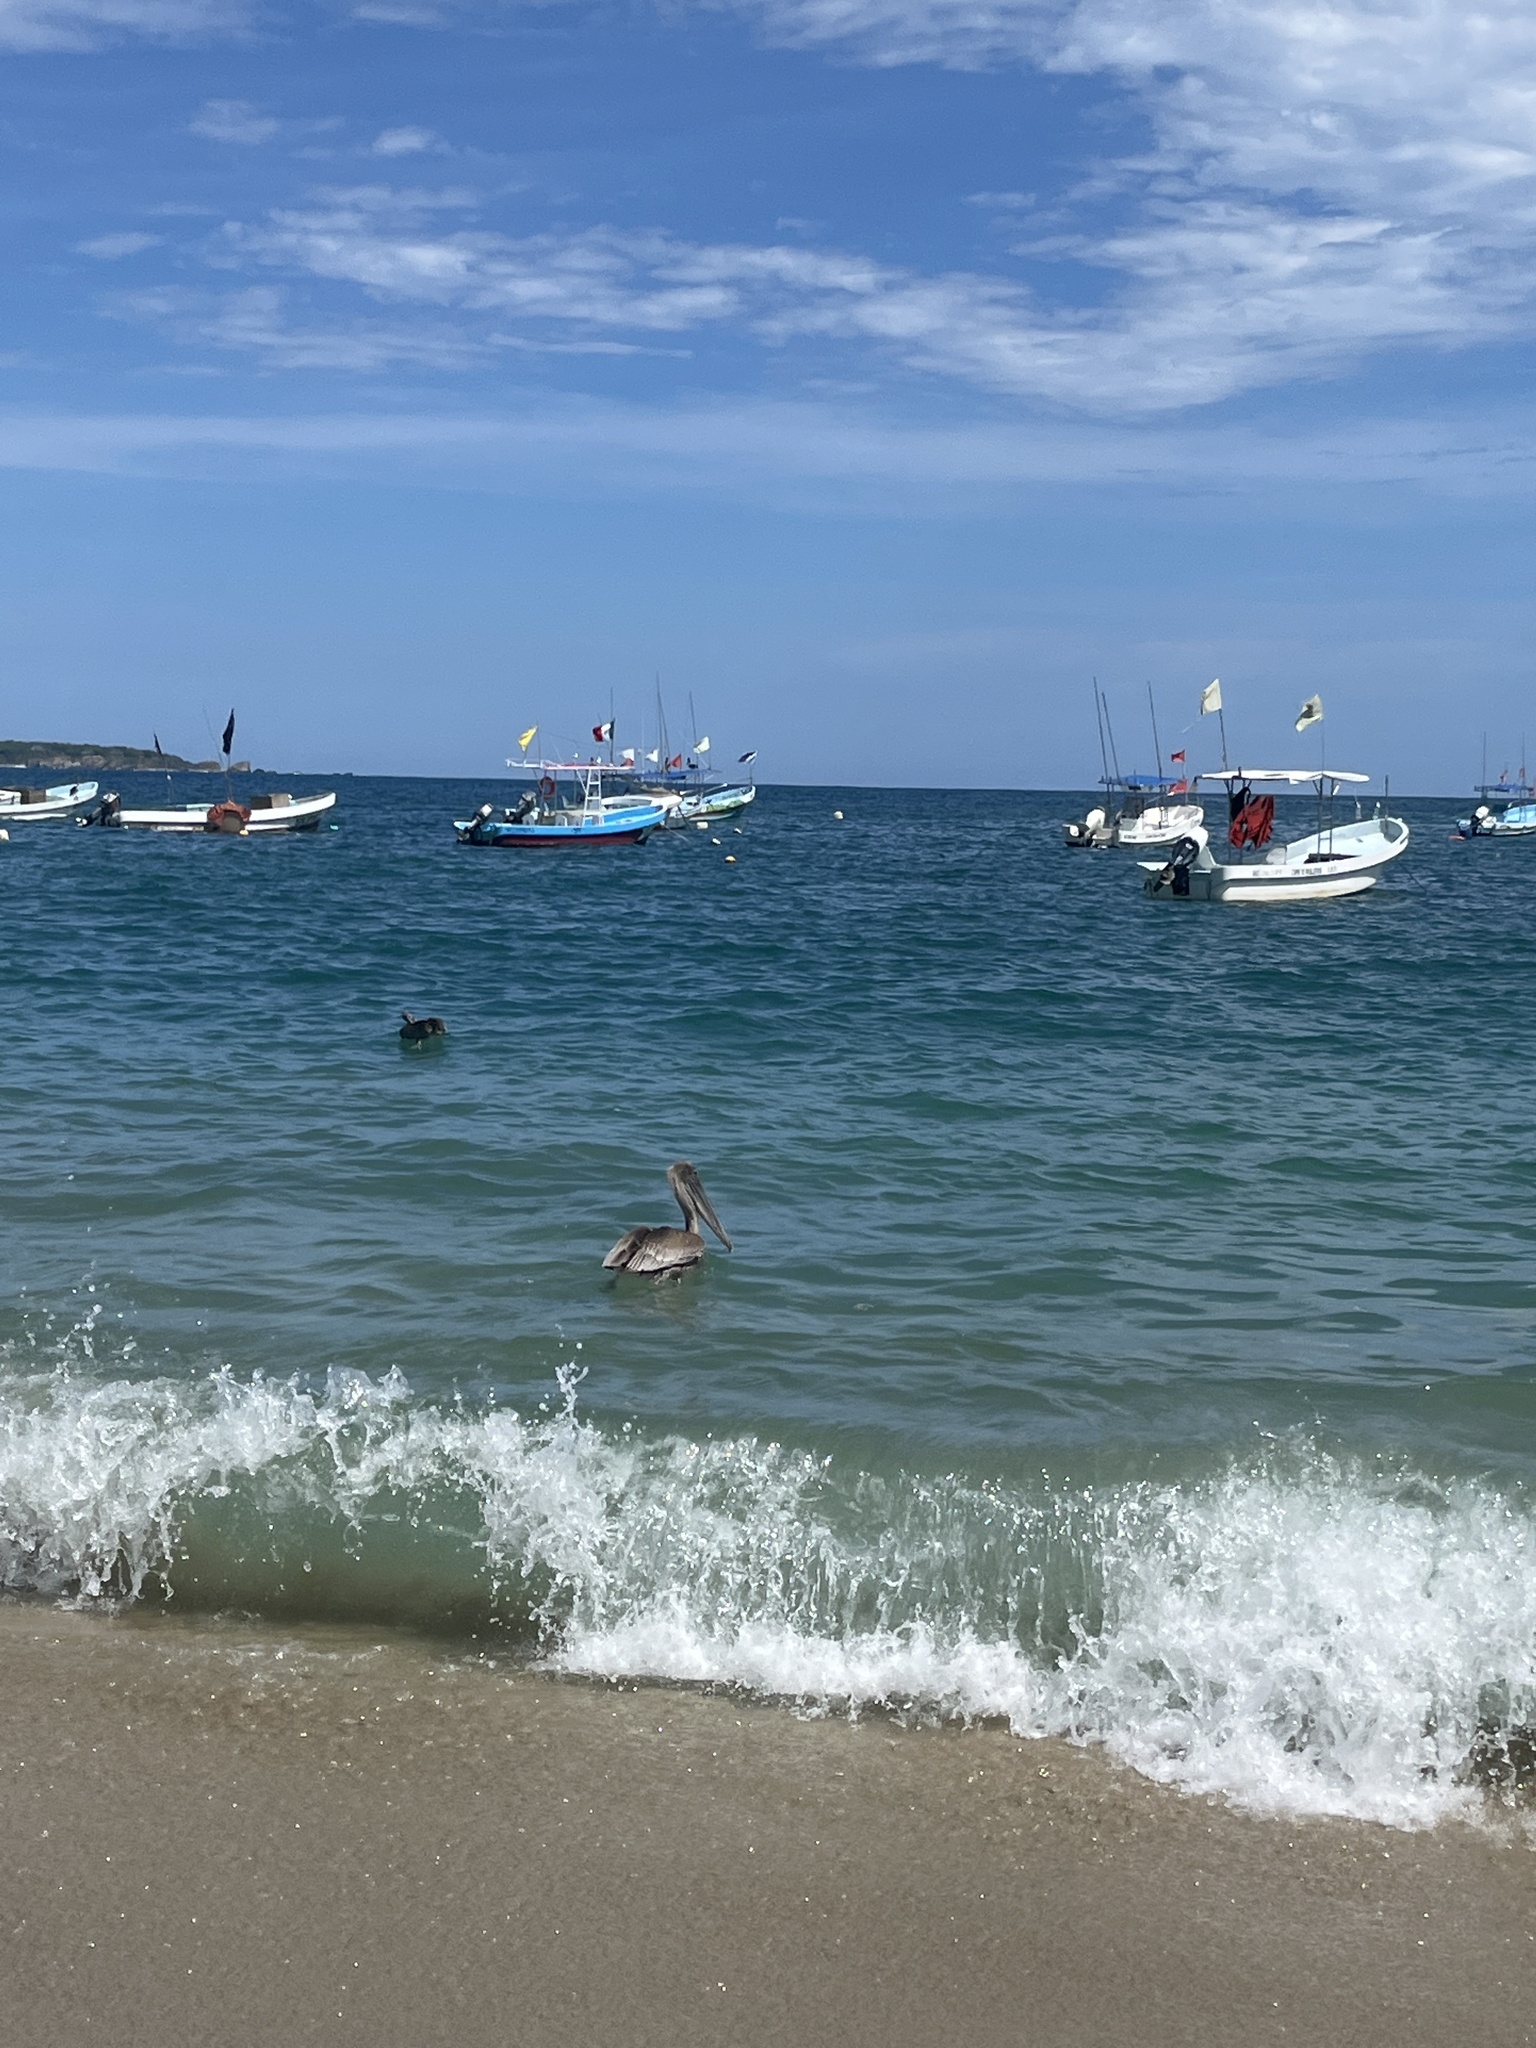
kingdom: Animalia
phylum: Chordata
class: Aves
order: Pelecaniformes
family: Pelecanidae
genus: Pelecanus
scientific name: Pelecanus occidentalis
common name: Brown pelican
